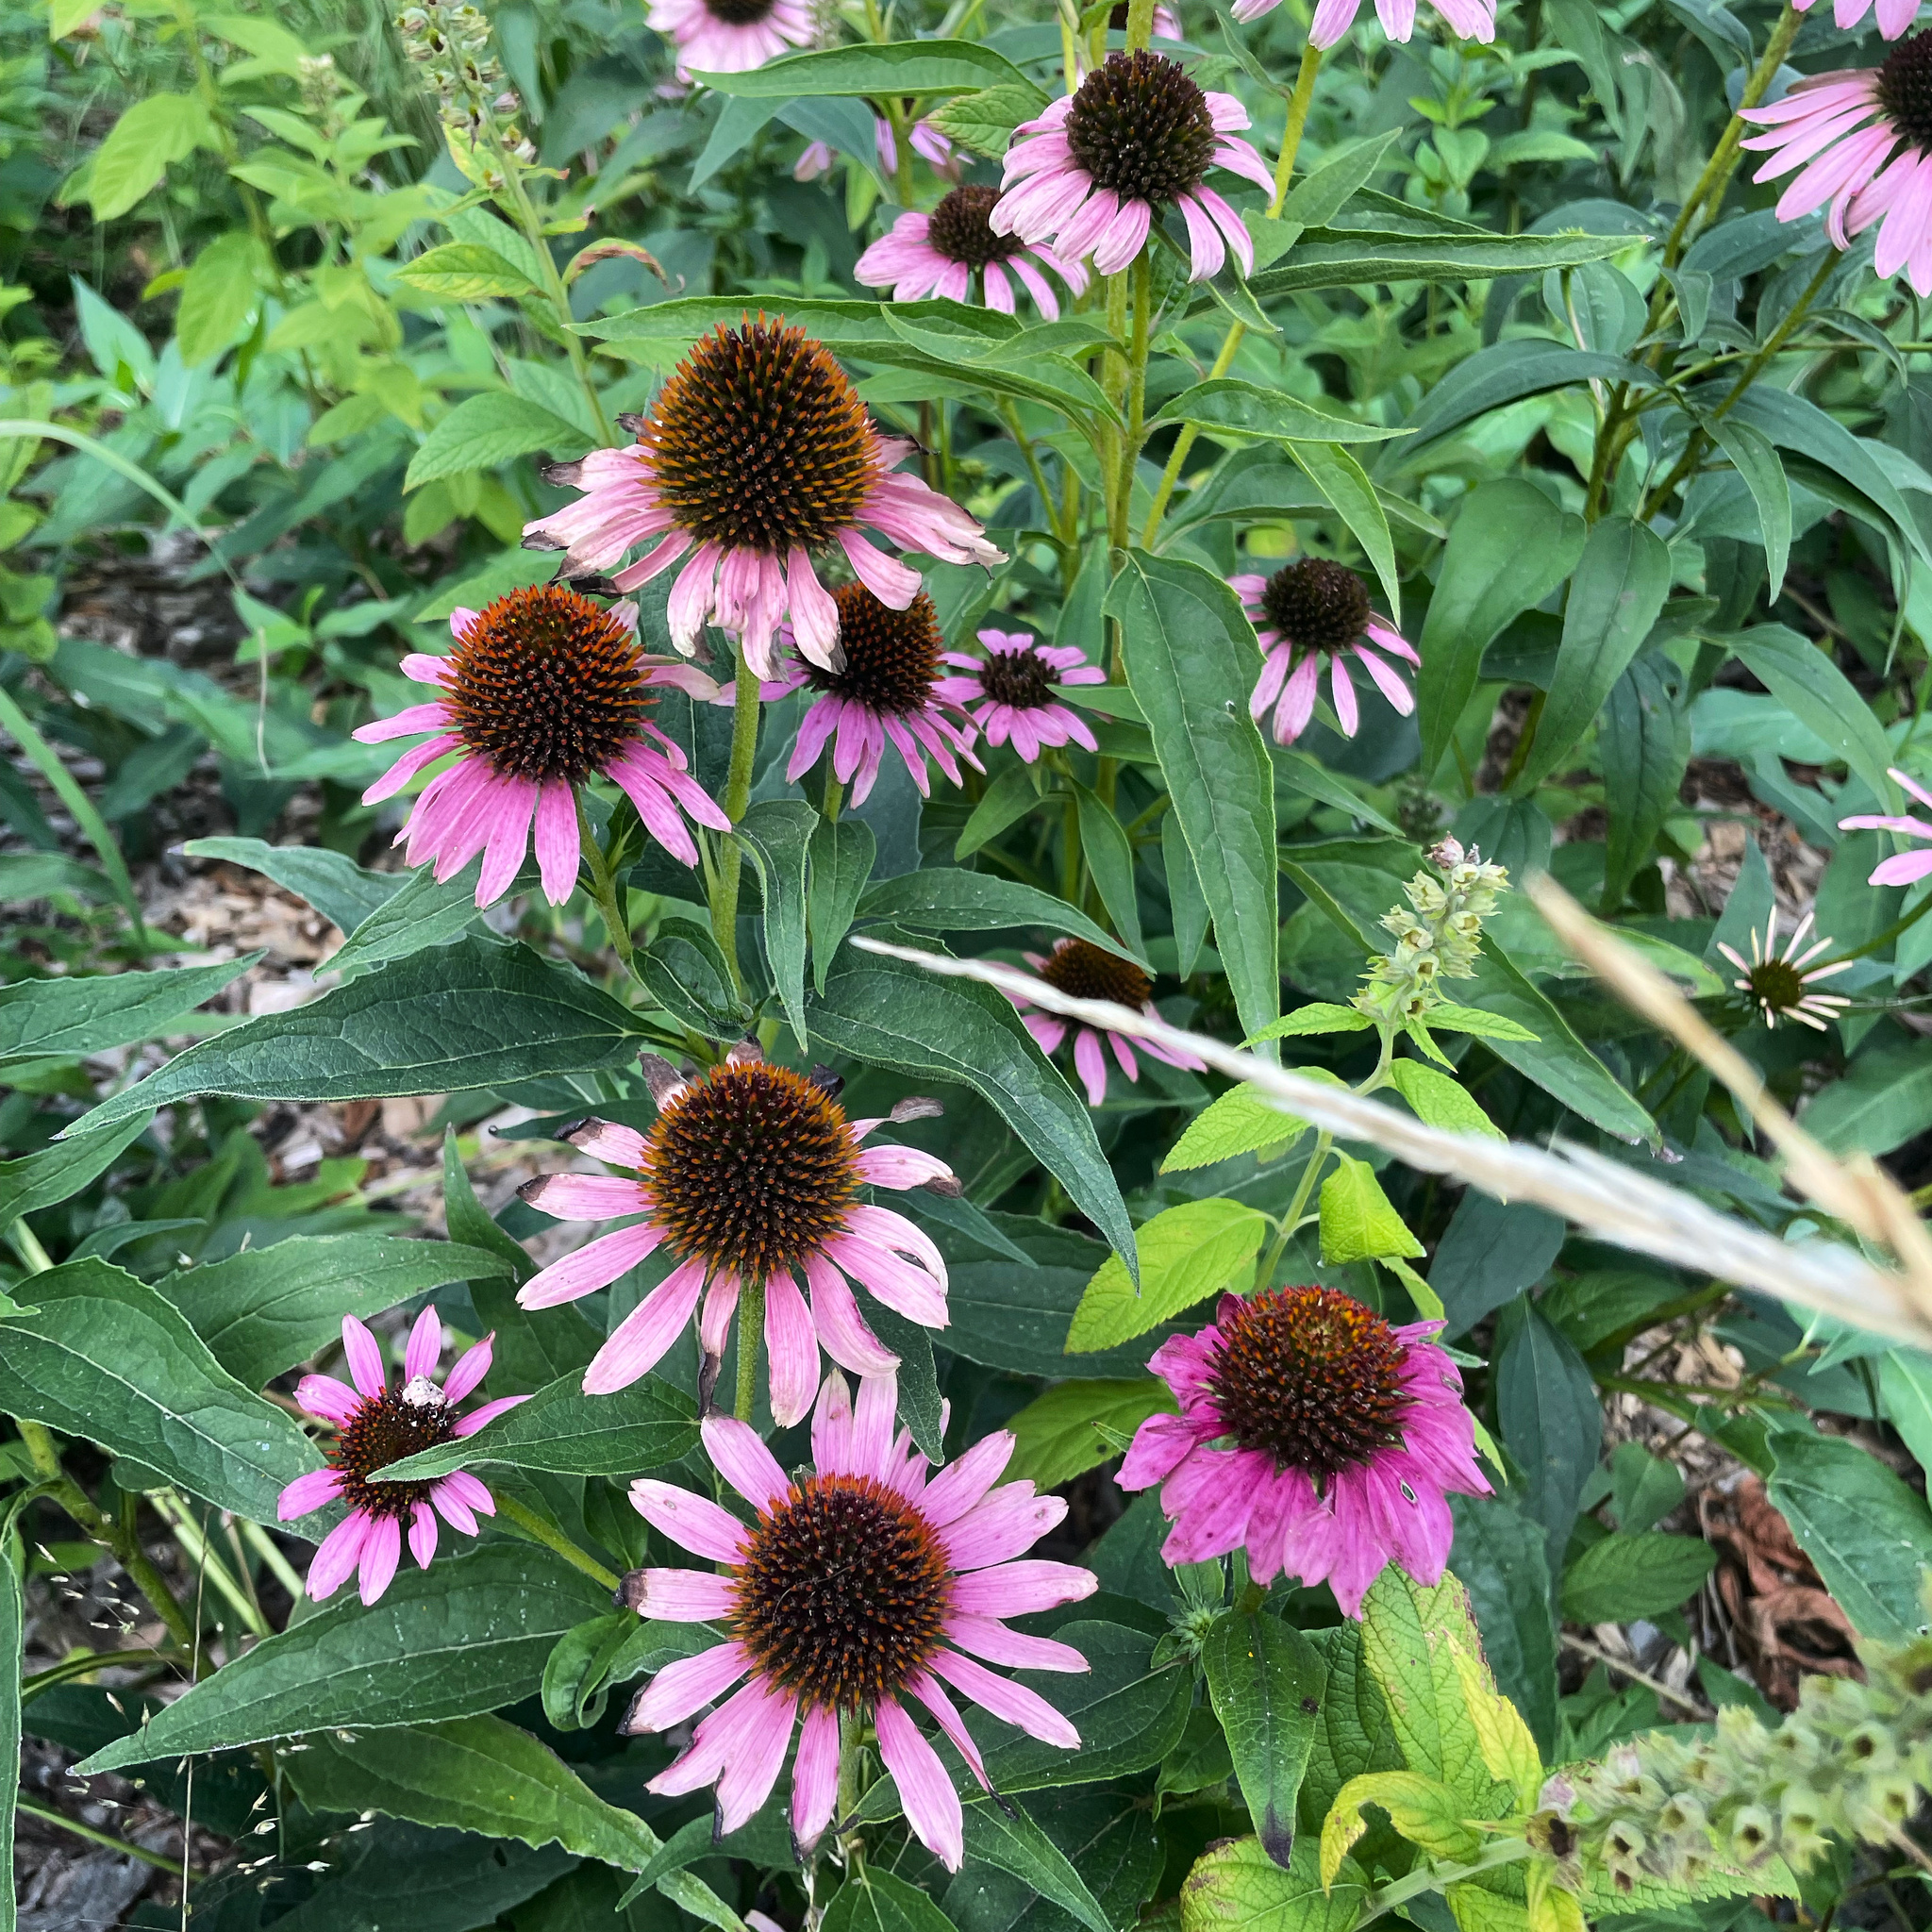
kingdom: Plantae
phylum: Tracheophyta
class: Magnoliopsida
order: Asterales
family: Asteraceae
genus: Echinacea
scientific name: Echinacea purpurea
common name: Broad-leaved purple coneflower
